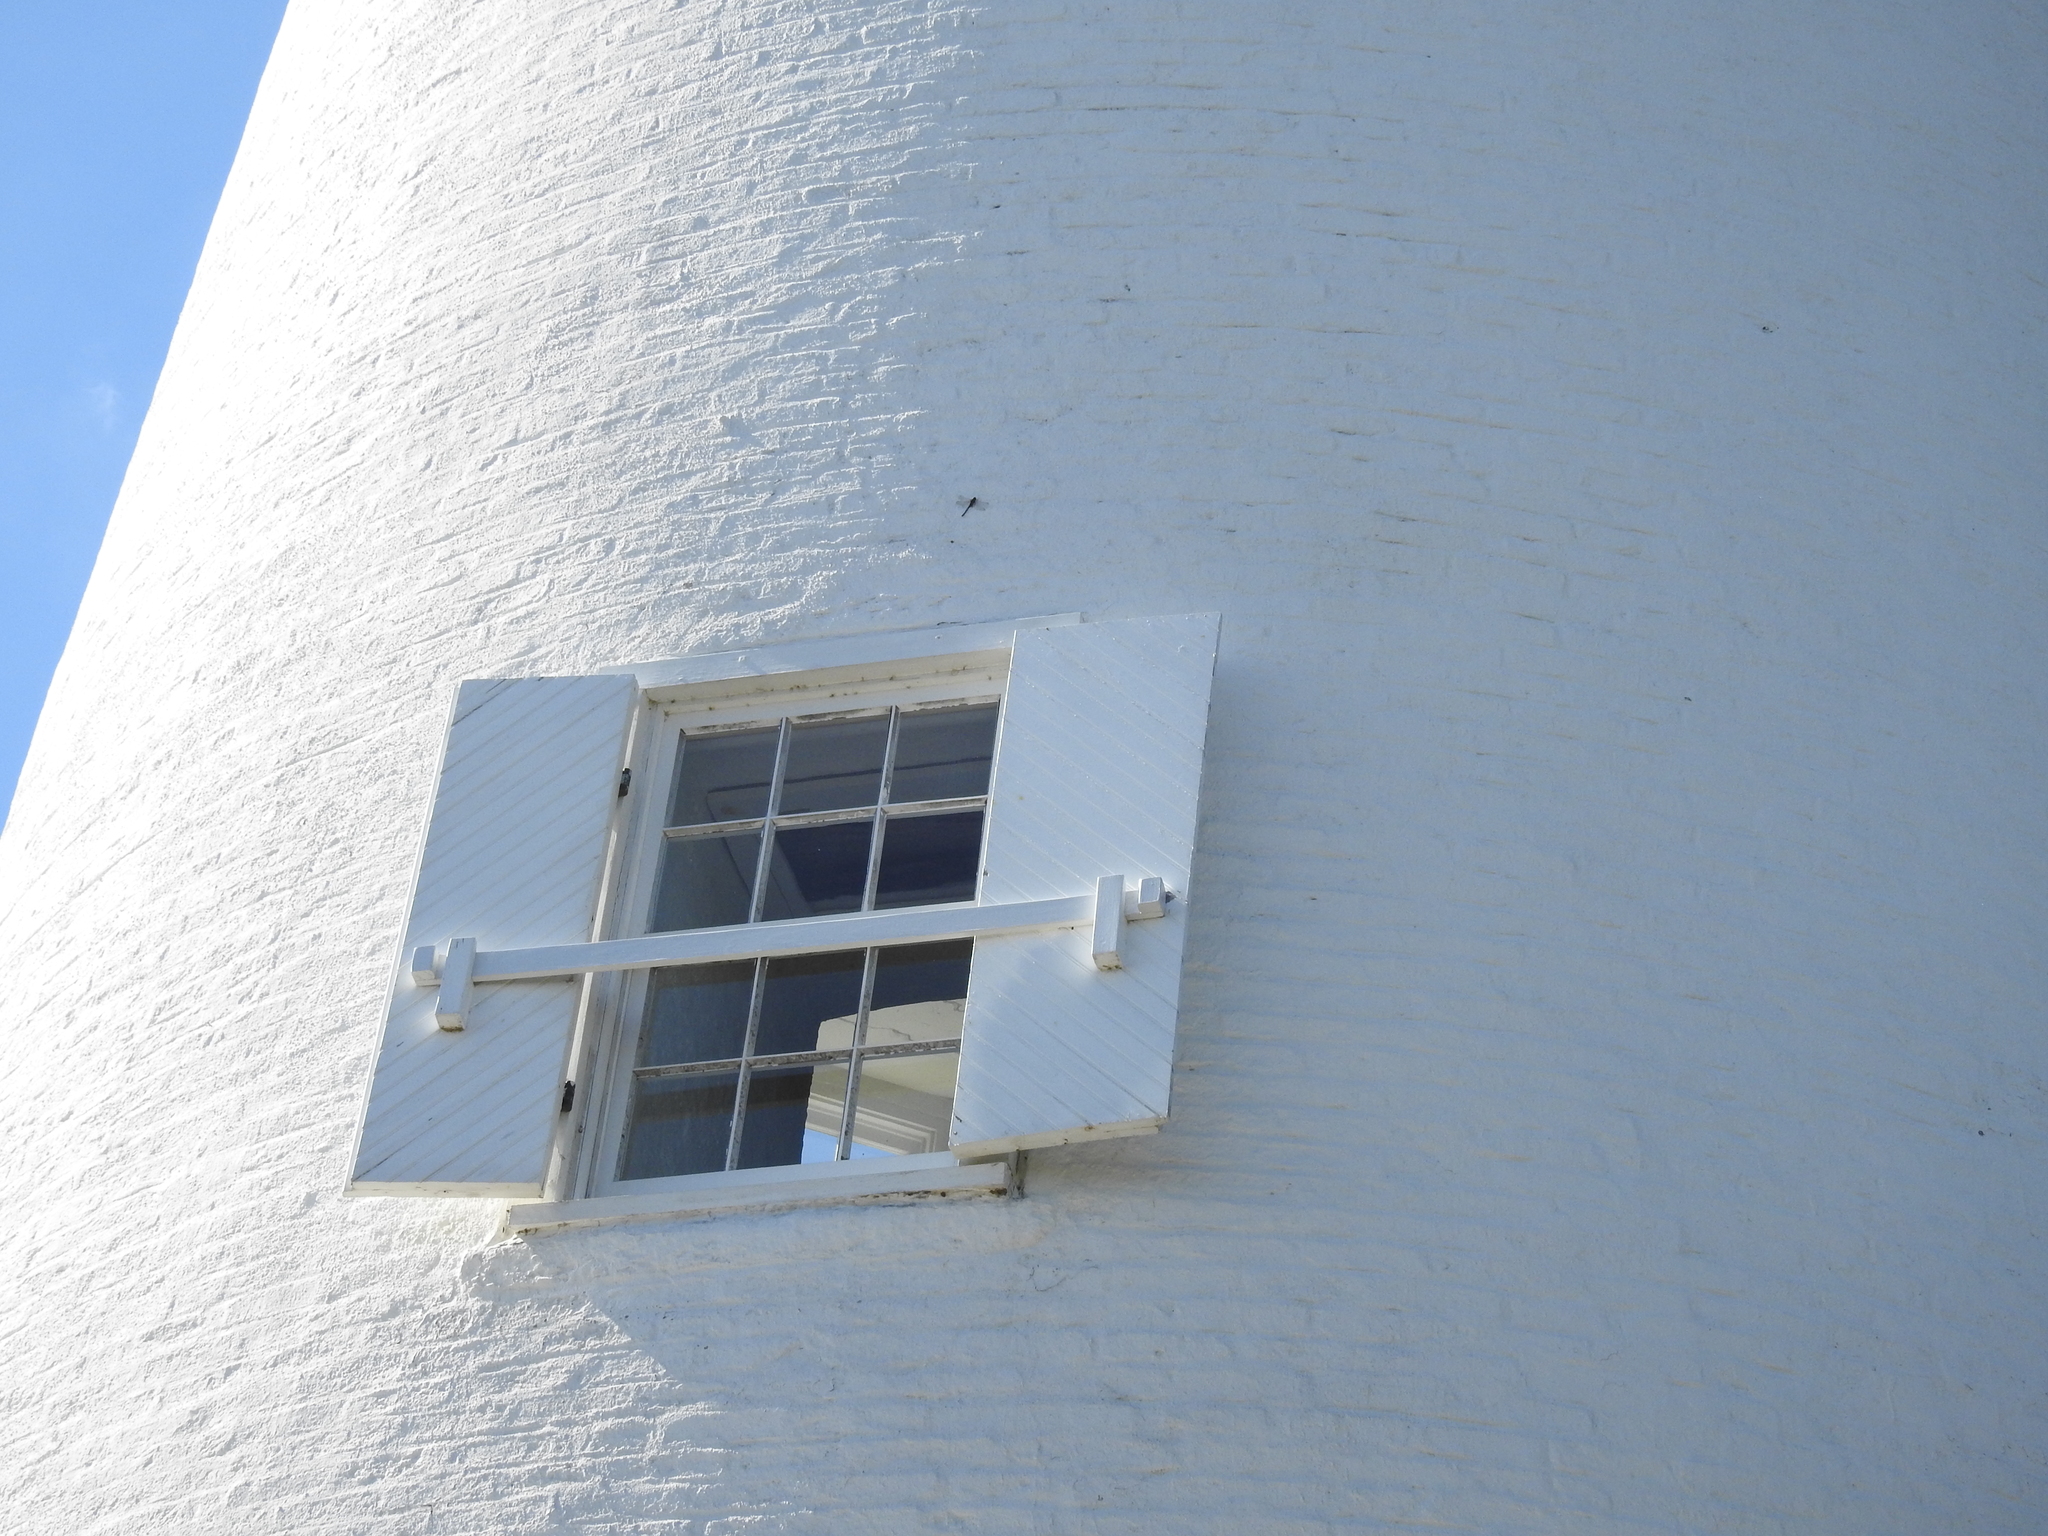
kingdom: Animalia
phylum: Arthropoda
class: Insecta
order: Odonata
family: Aeshnidae
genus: Gomphaeschna
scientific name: Gomphaeschna furcillata
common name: Harlequin darner
